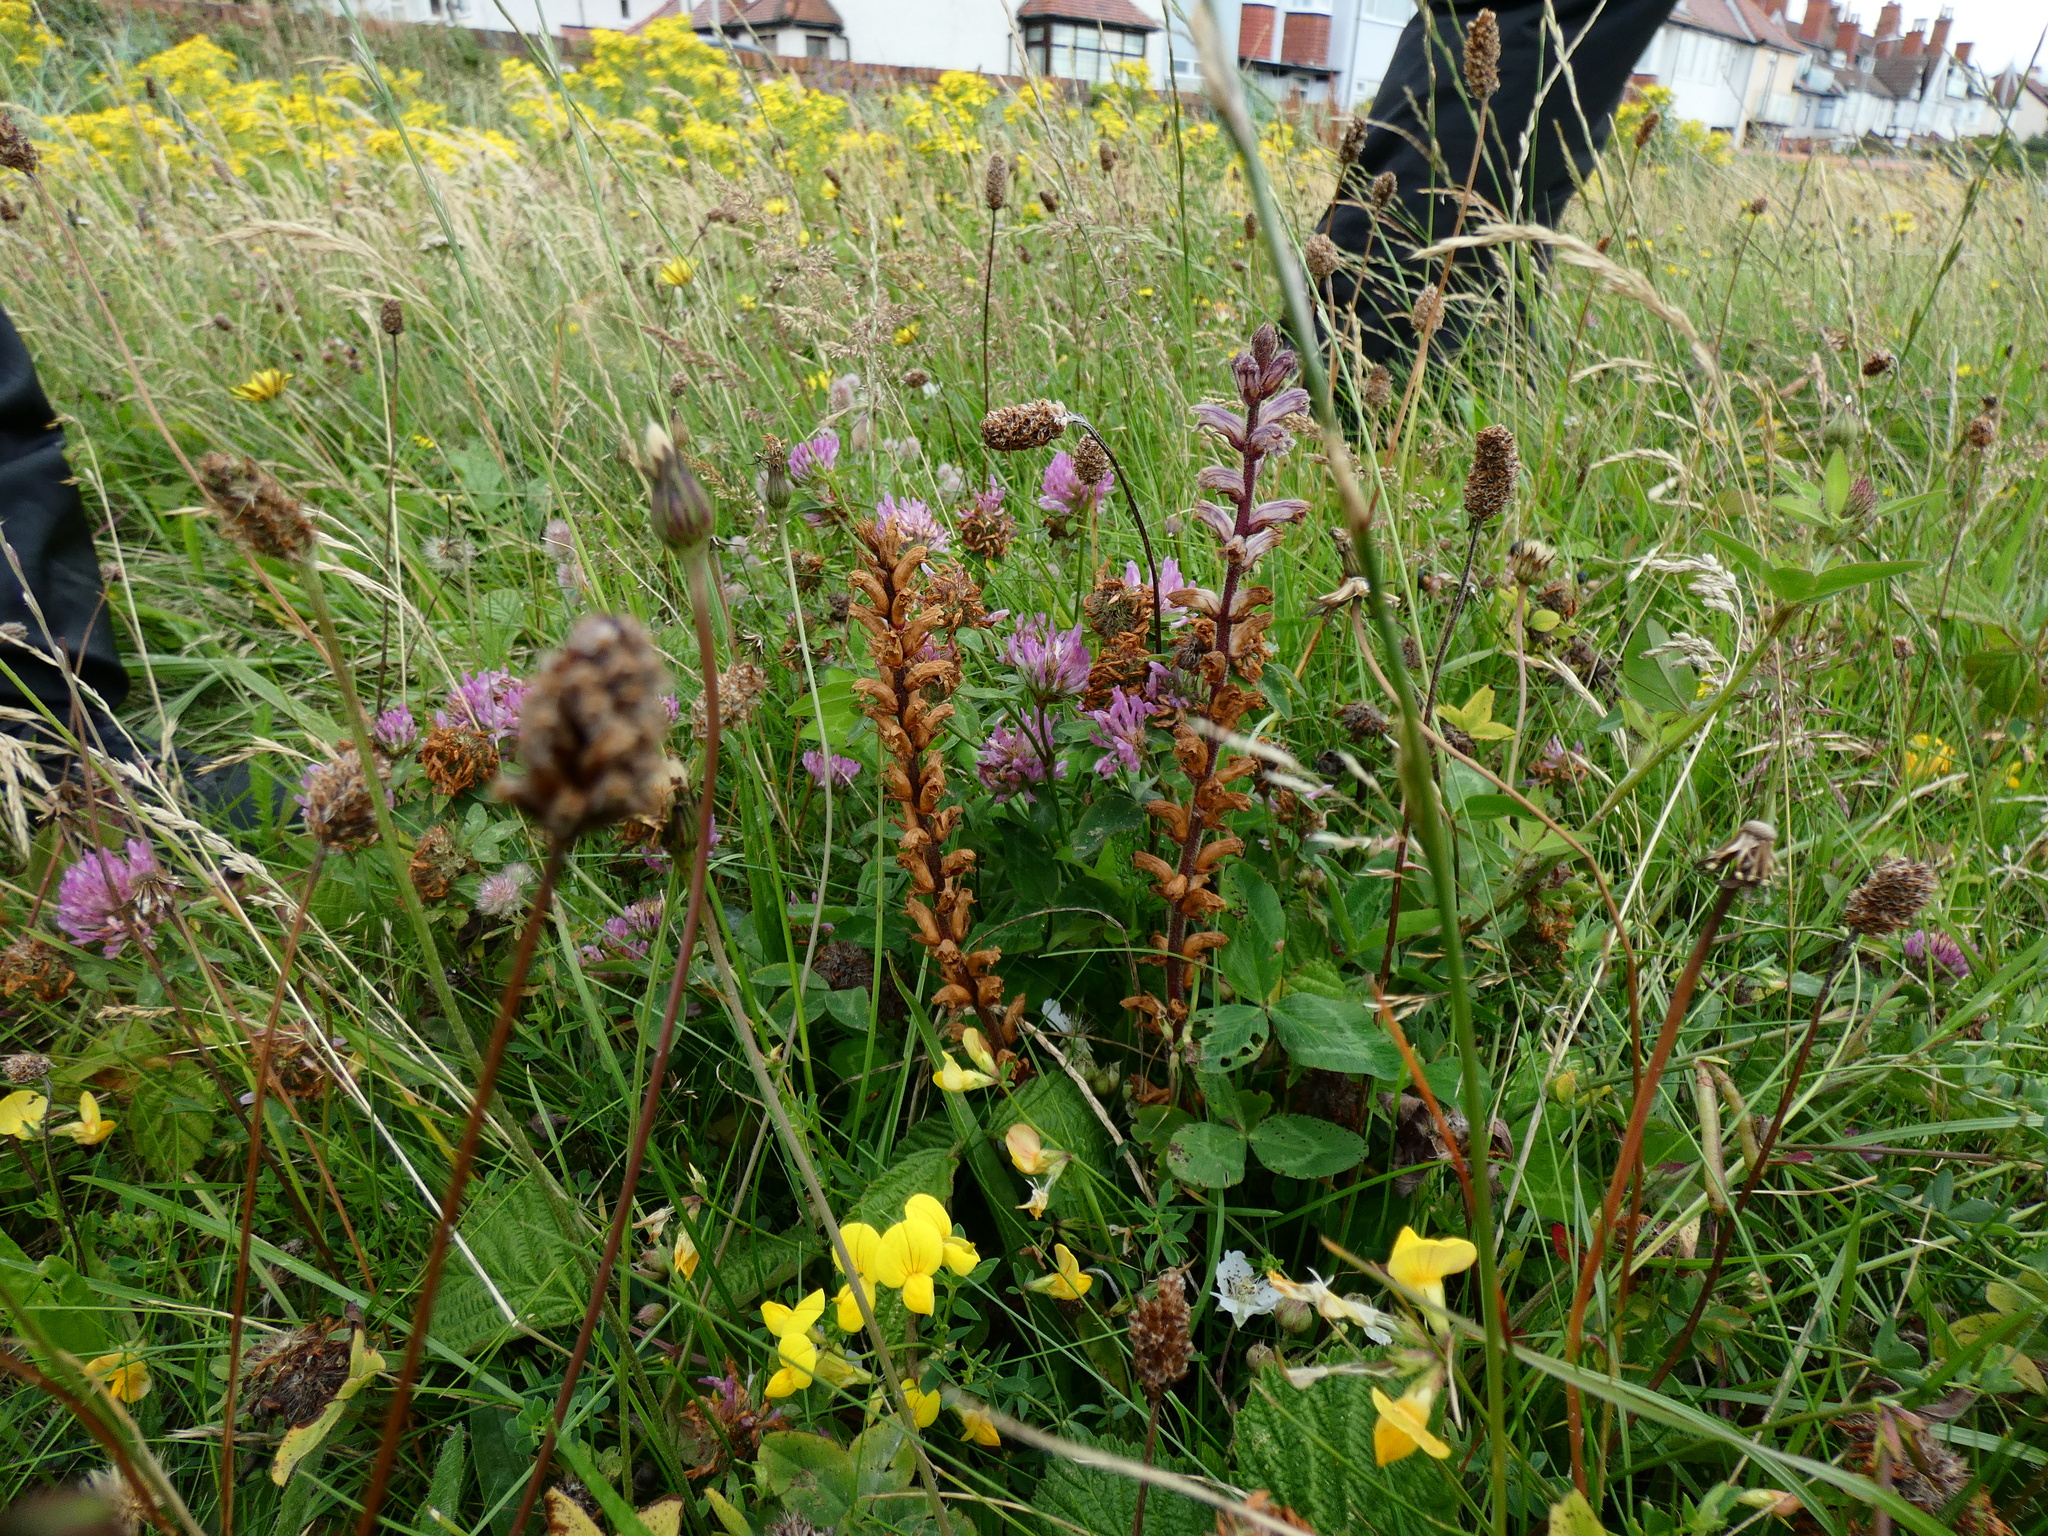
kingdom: Plantae
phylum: Tracheophyta
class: Magnoliopsida
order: Lamiales
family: Orobanchaceae
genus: Orobanche
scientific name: Orobanche minor
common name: Common broomrape
